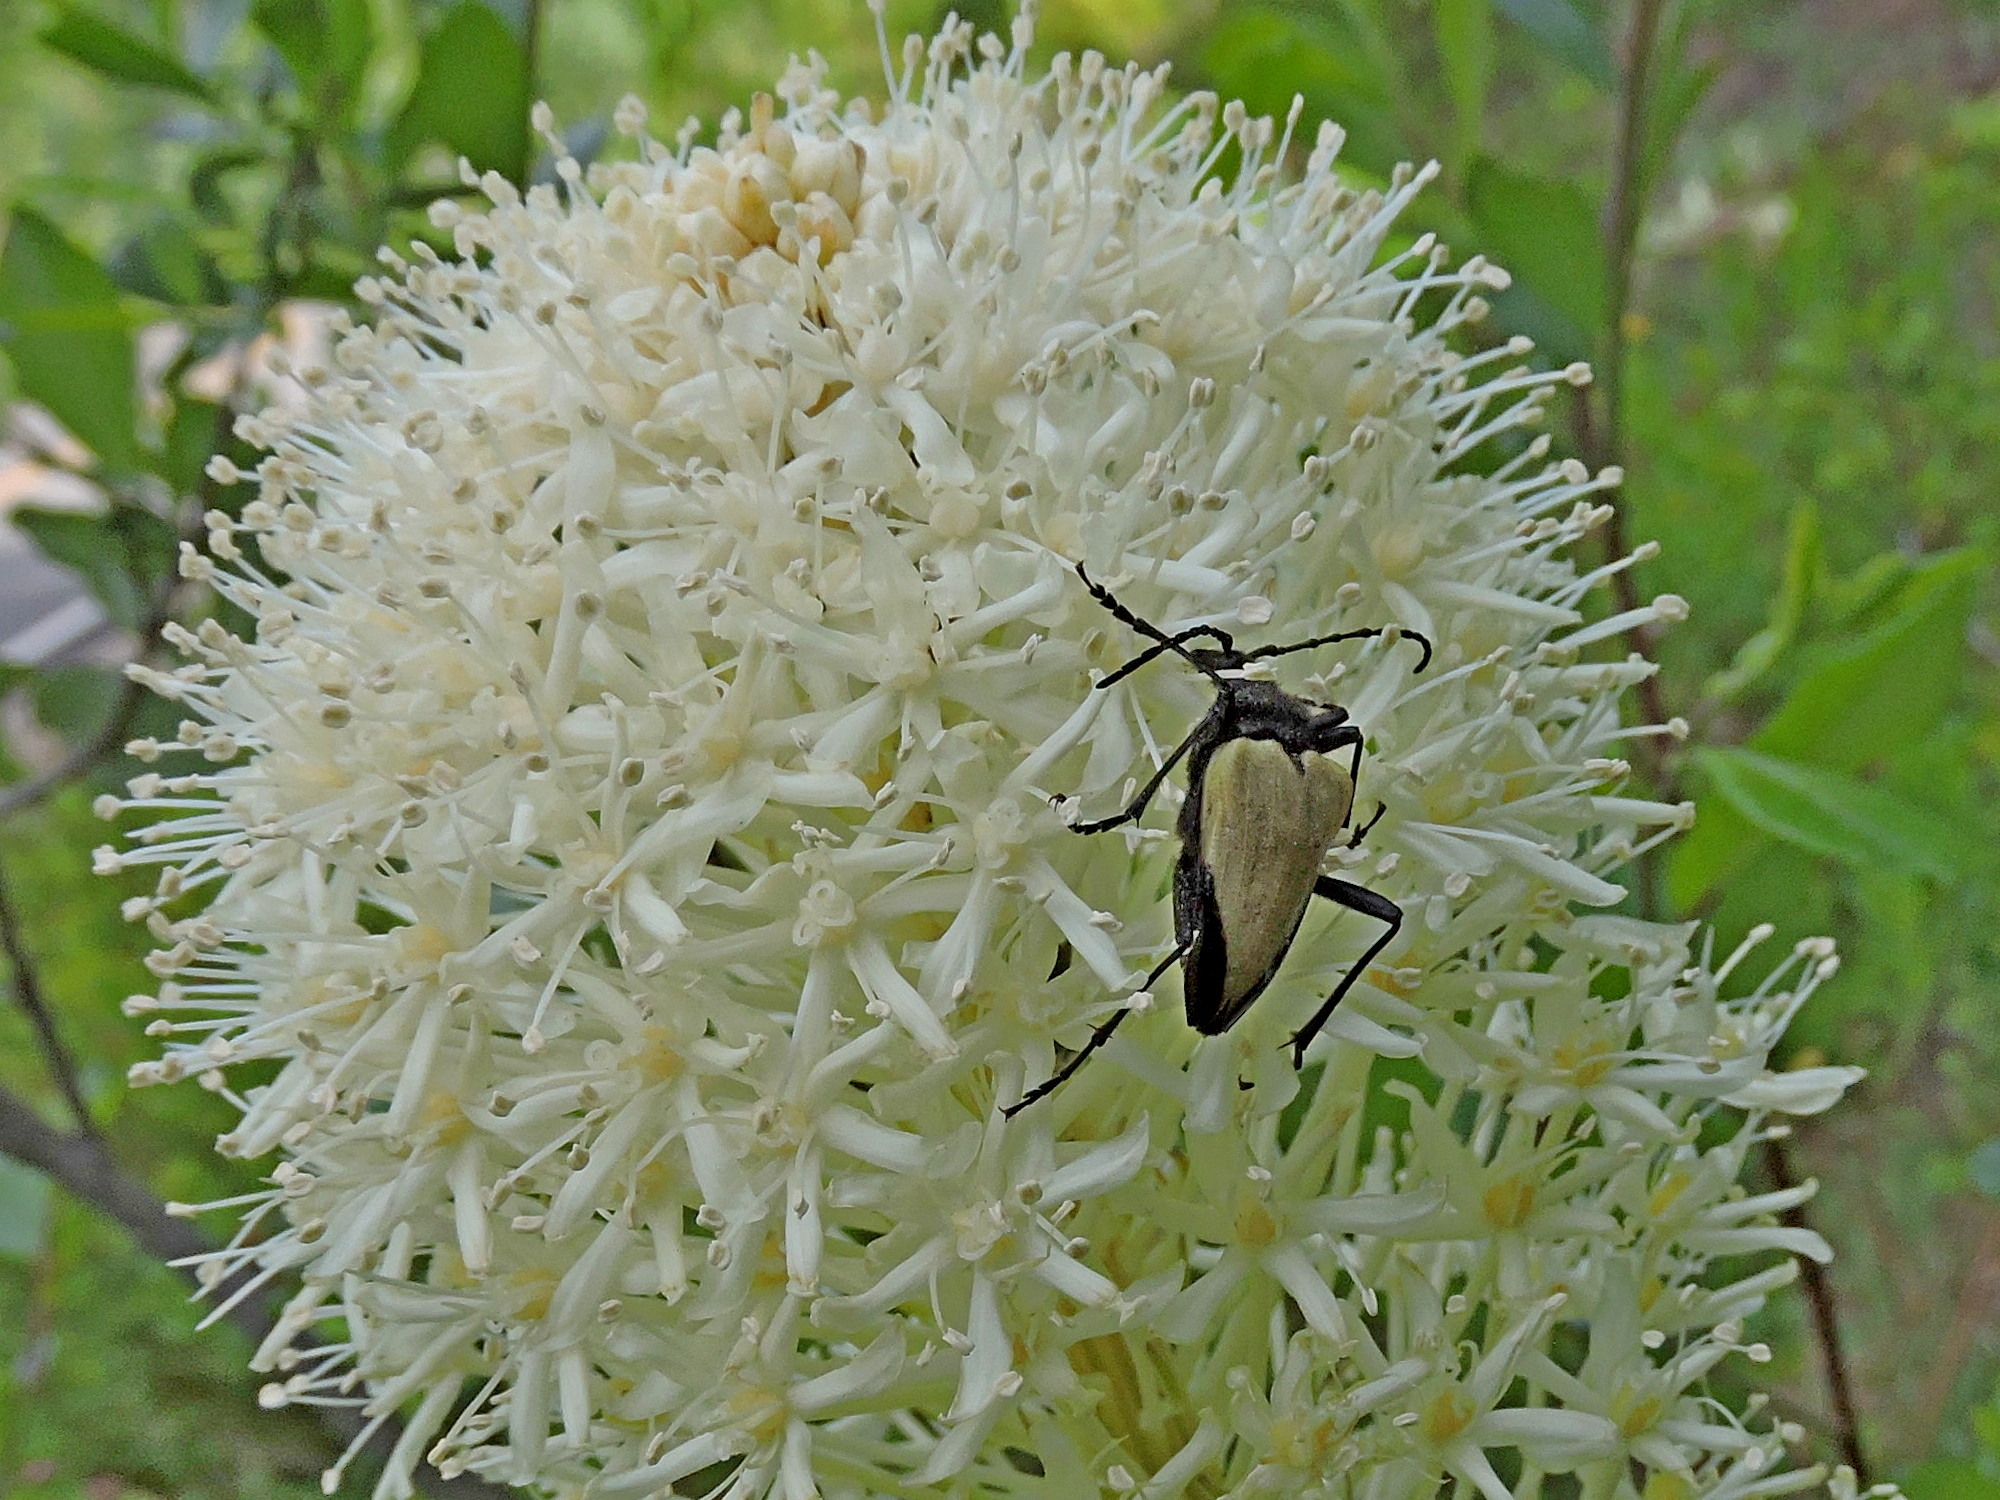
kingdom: Animalia
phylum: Arthropoda
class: Insecta
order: Coleoptera
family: Cerambycidae
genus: Pachyta
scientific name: Pachyta armata
